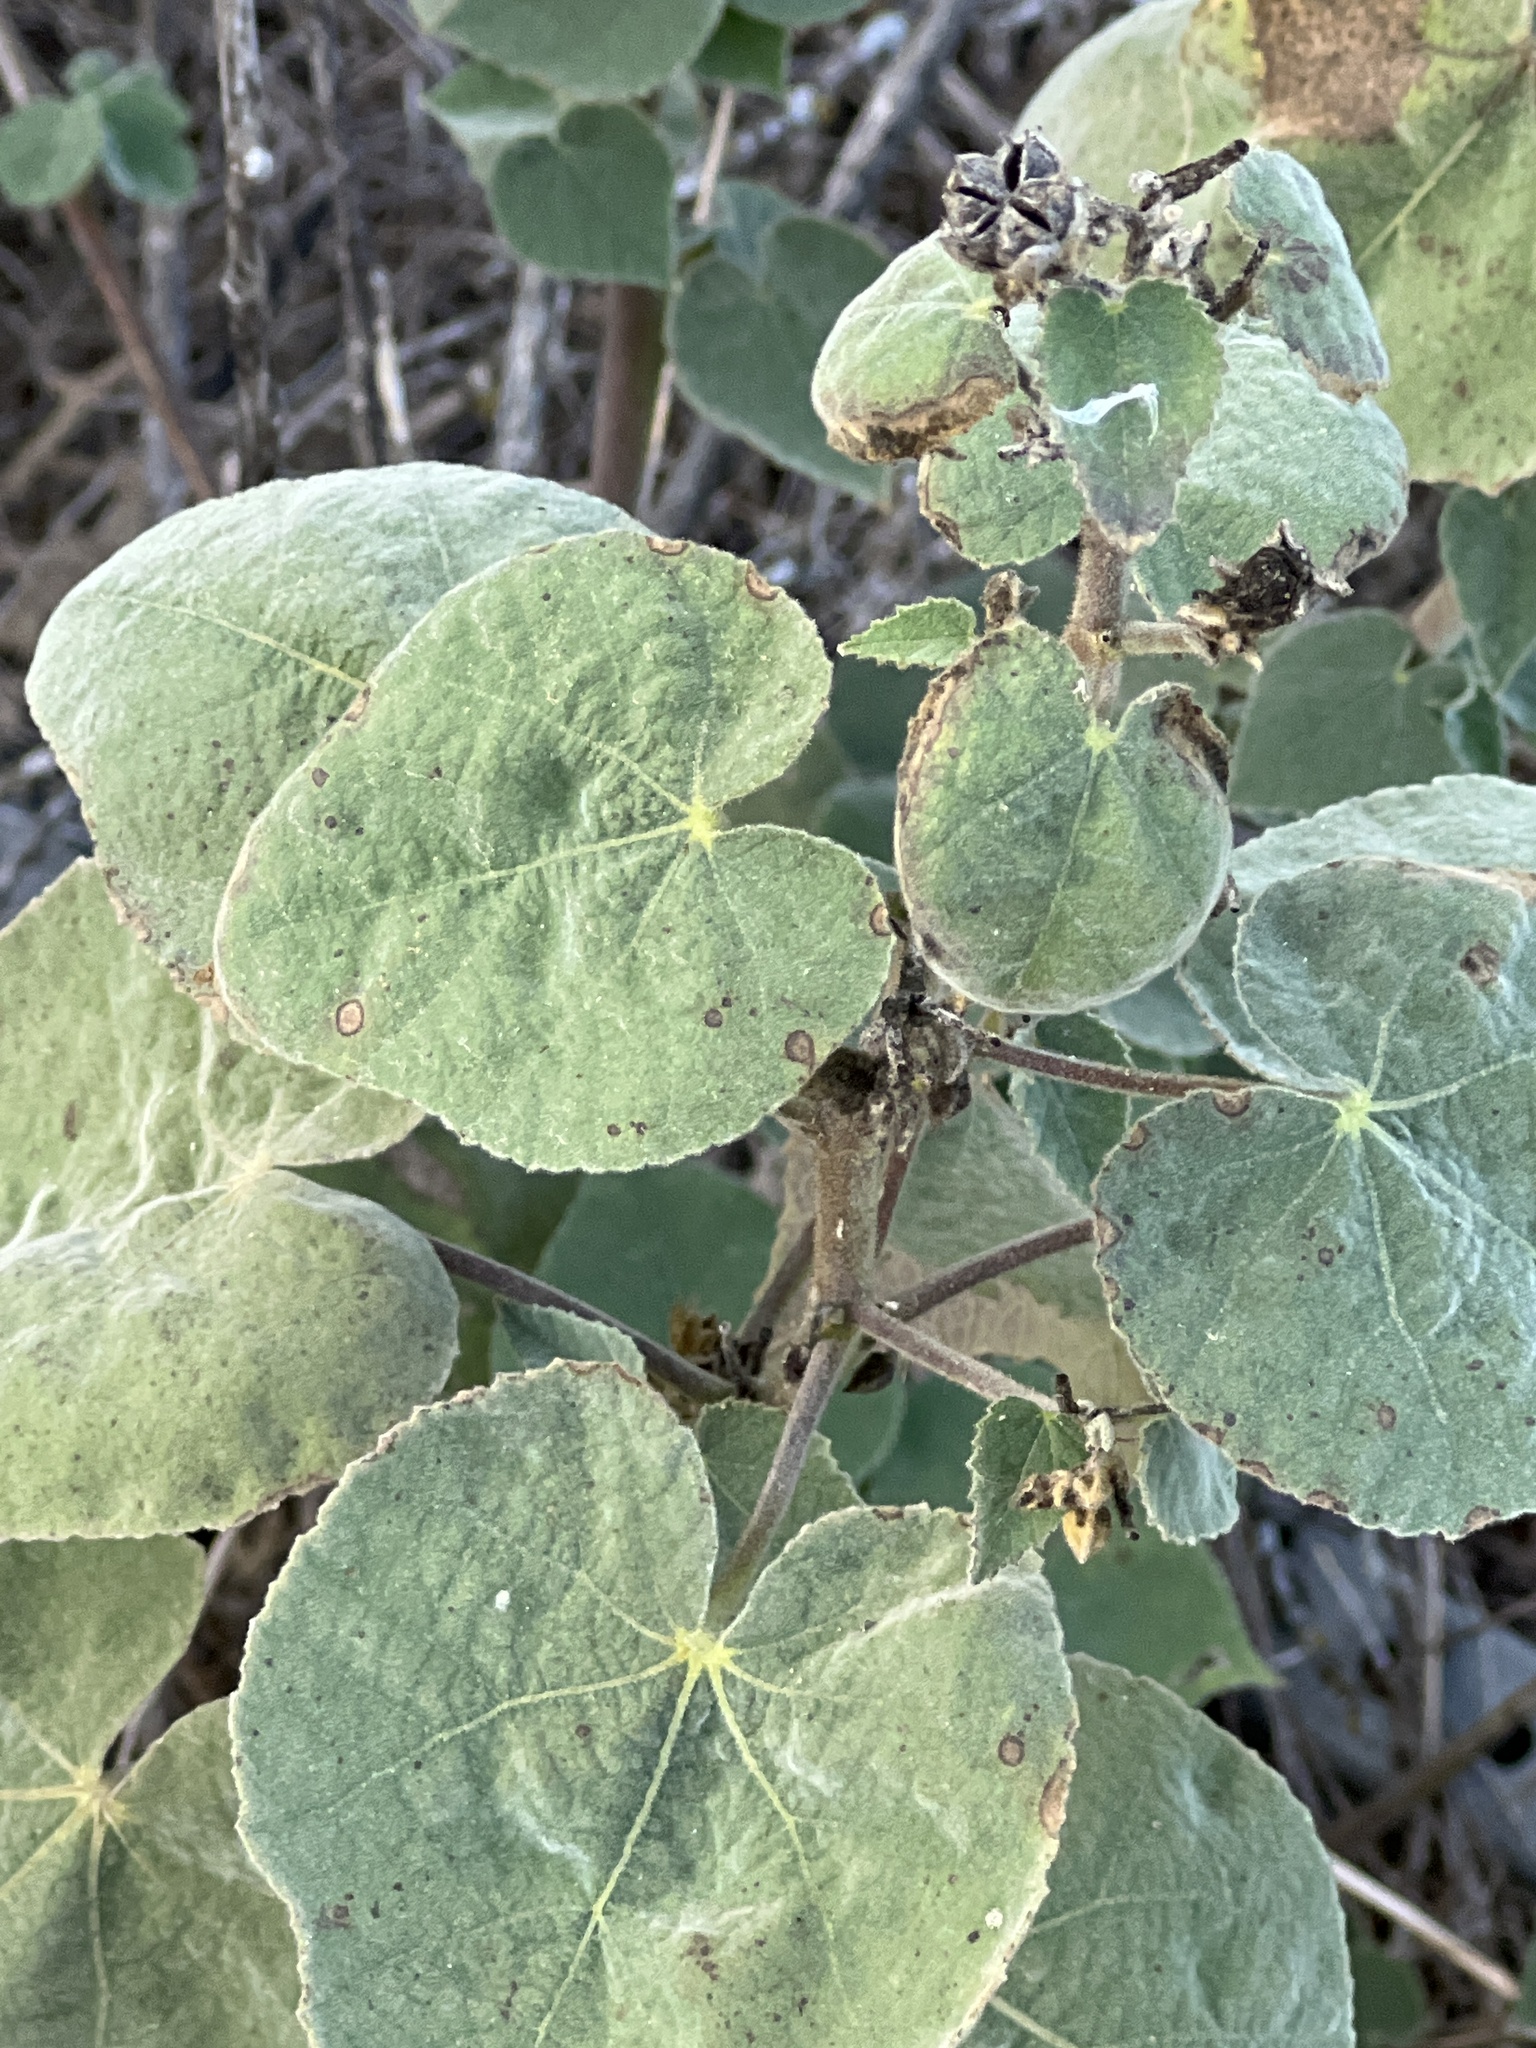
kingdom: Plantae
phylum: Tracheophyta
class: Magnoliopsida
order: Malvales
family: Malvaceae
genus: Allowissadula
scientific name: Allowissadula holosericea
